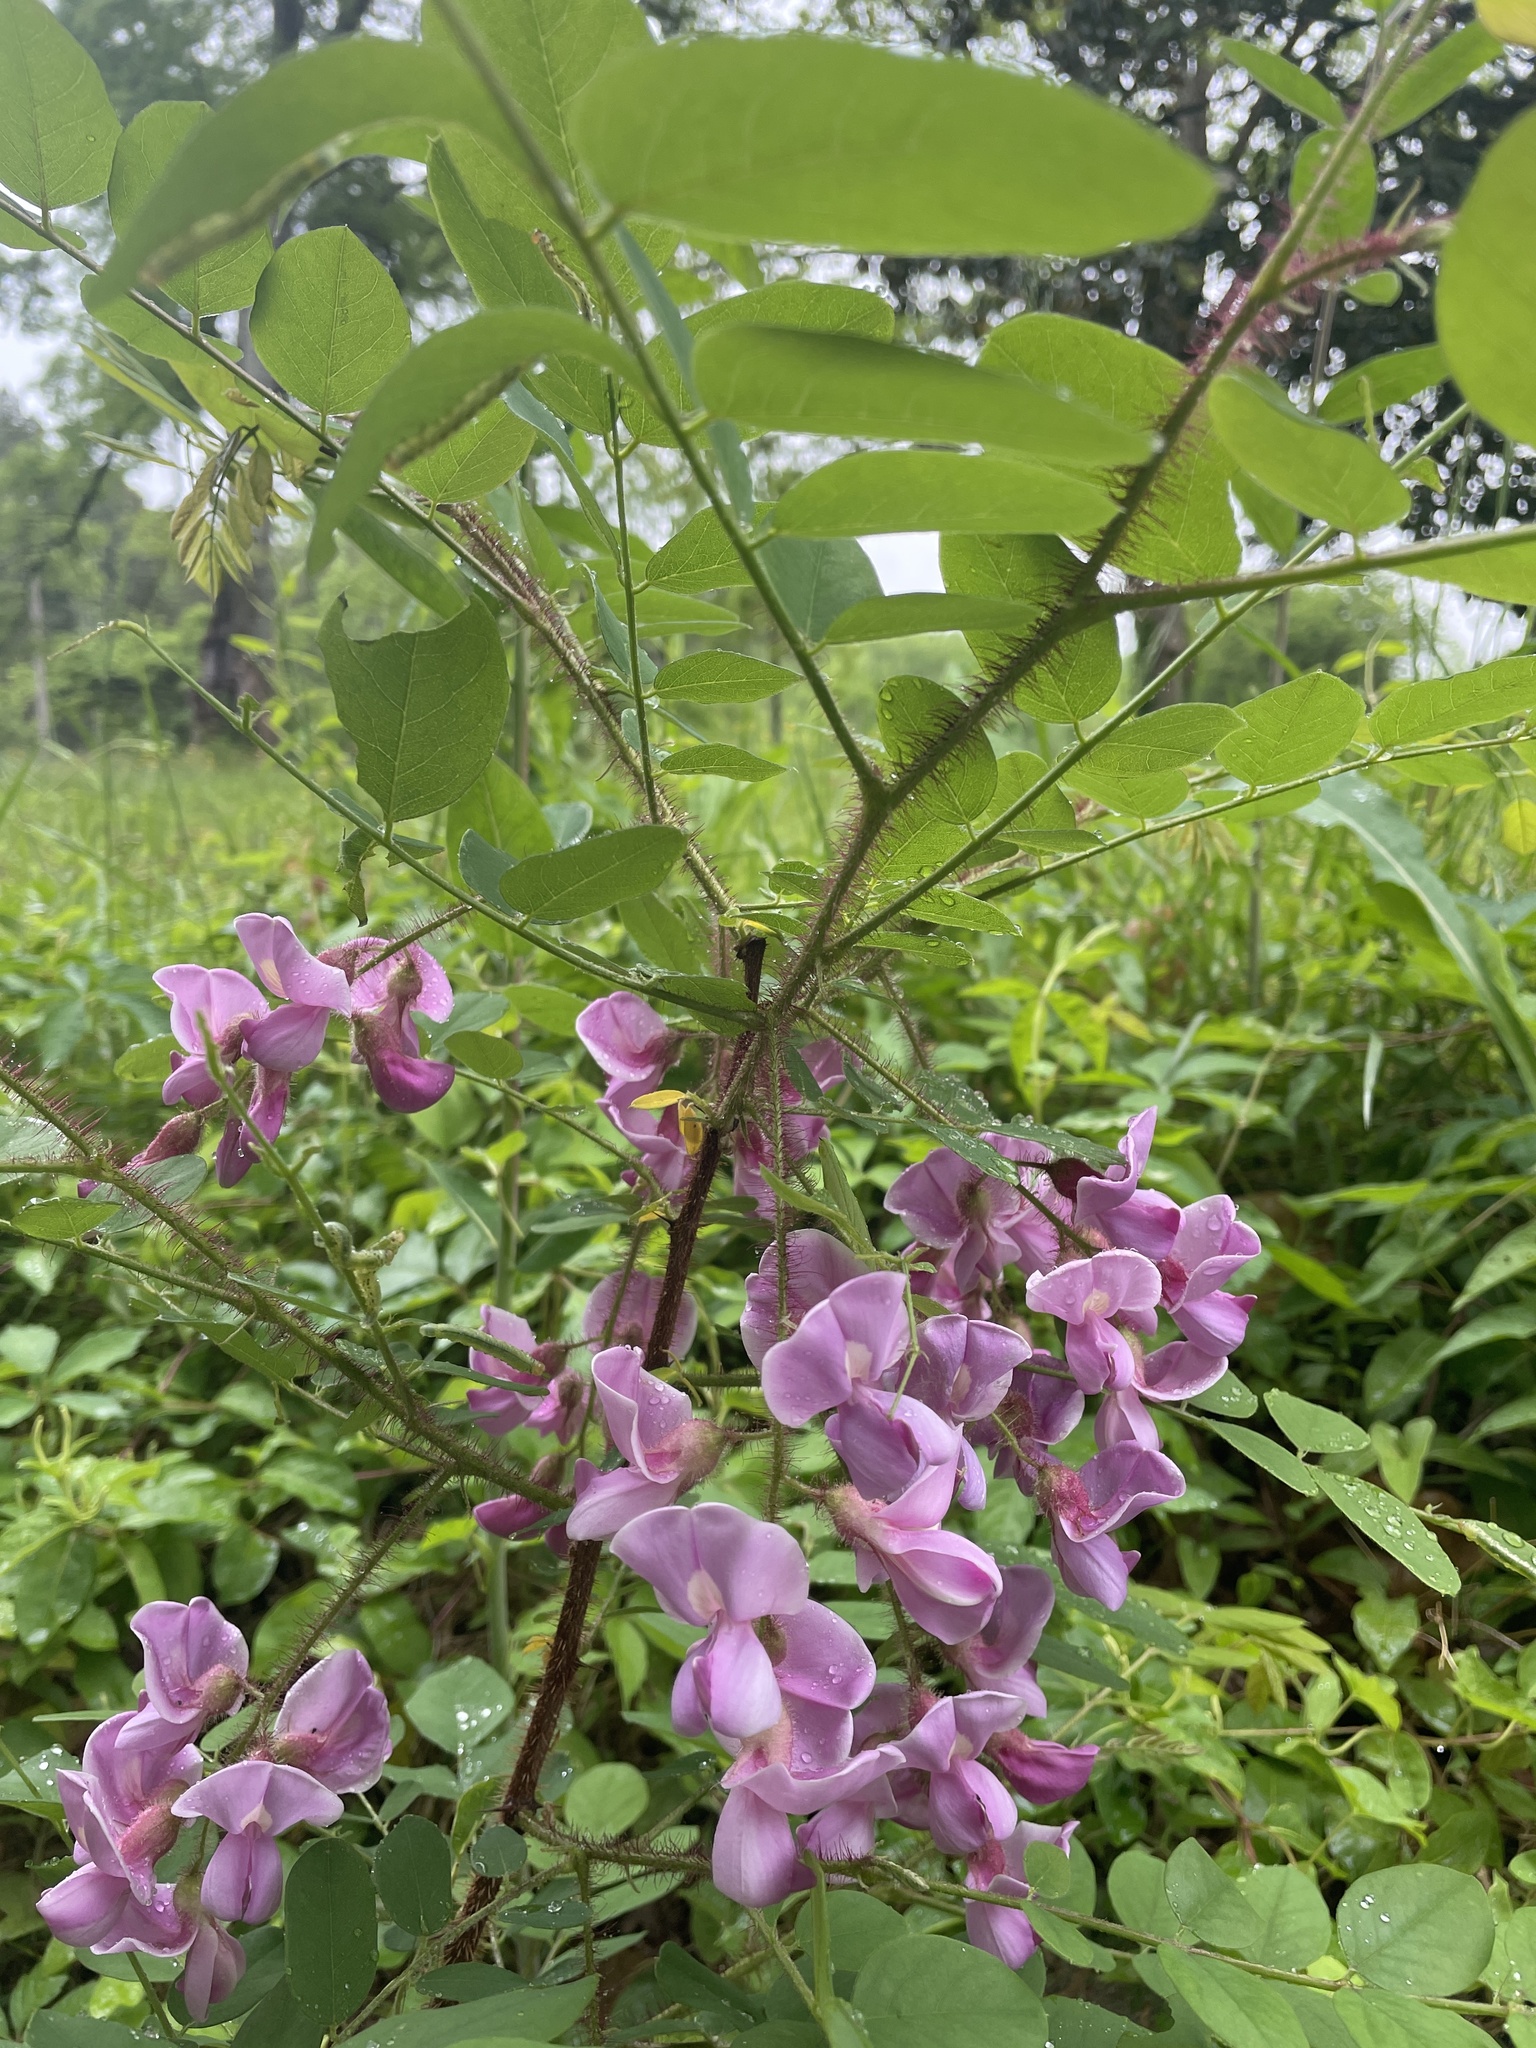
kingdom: Plantae
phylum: Tracheophyta
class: Magnoliopsida
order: Fabales
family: Fabaceae
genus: Robinia
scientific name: Robinia hispida
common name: Bristly locust
